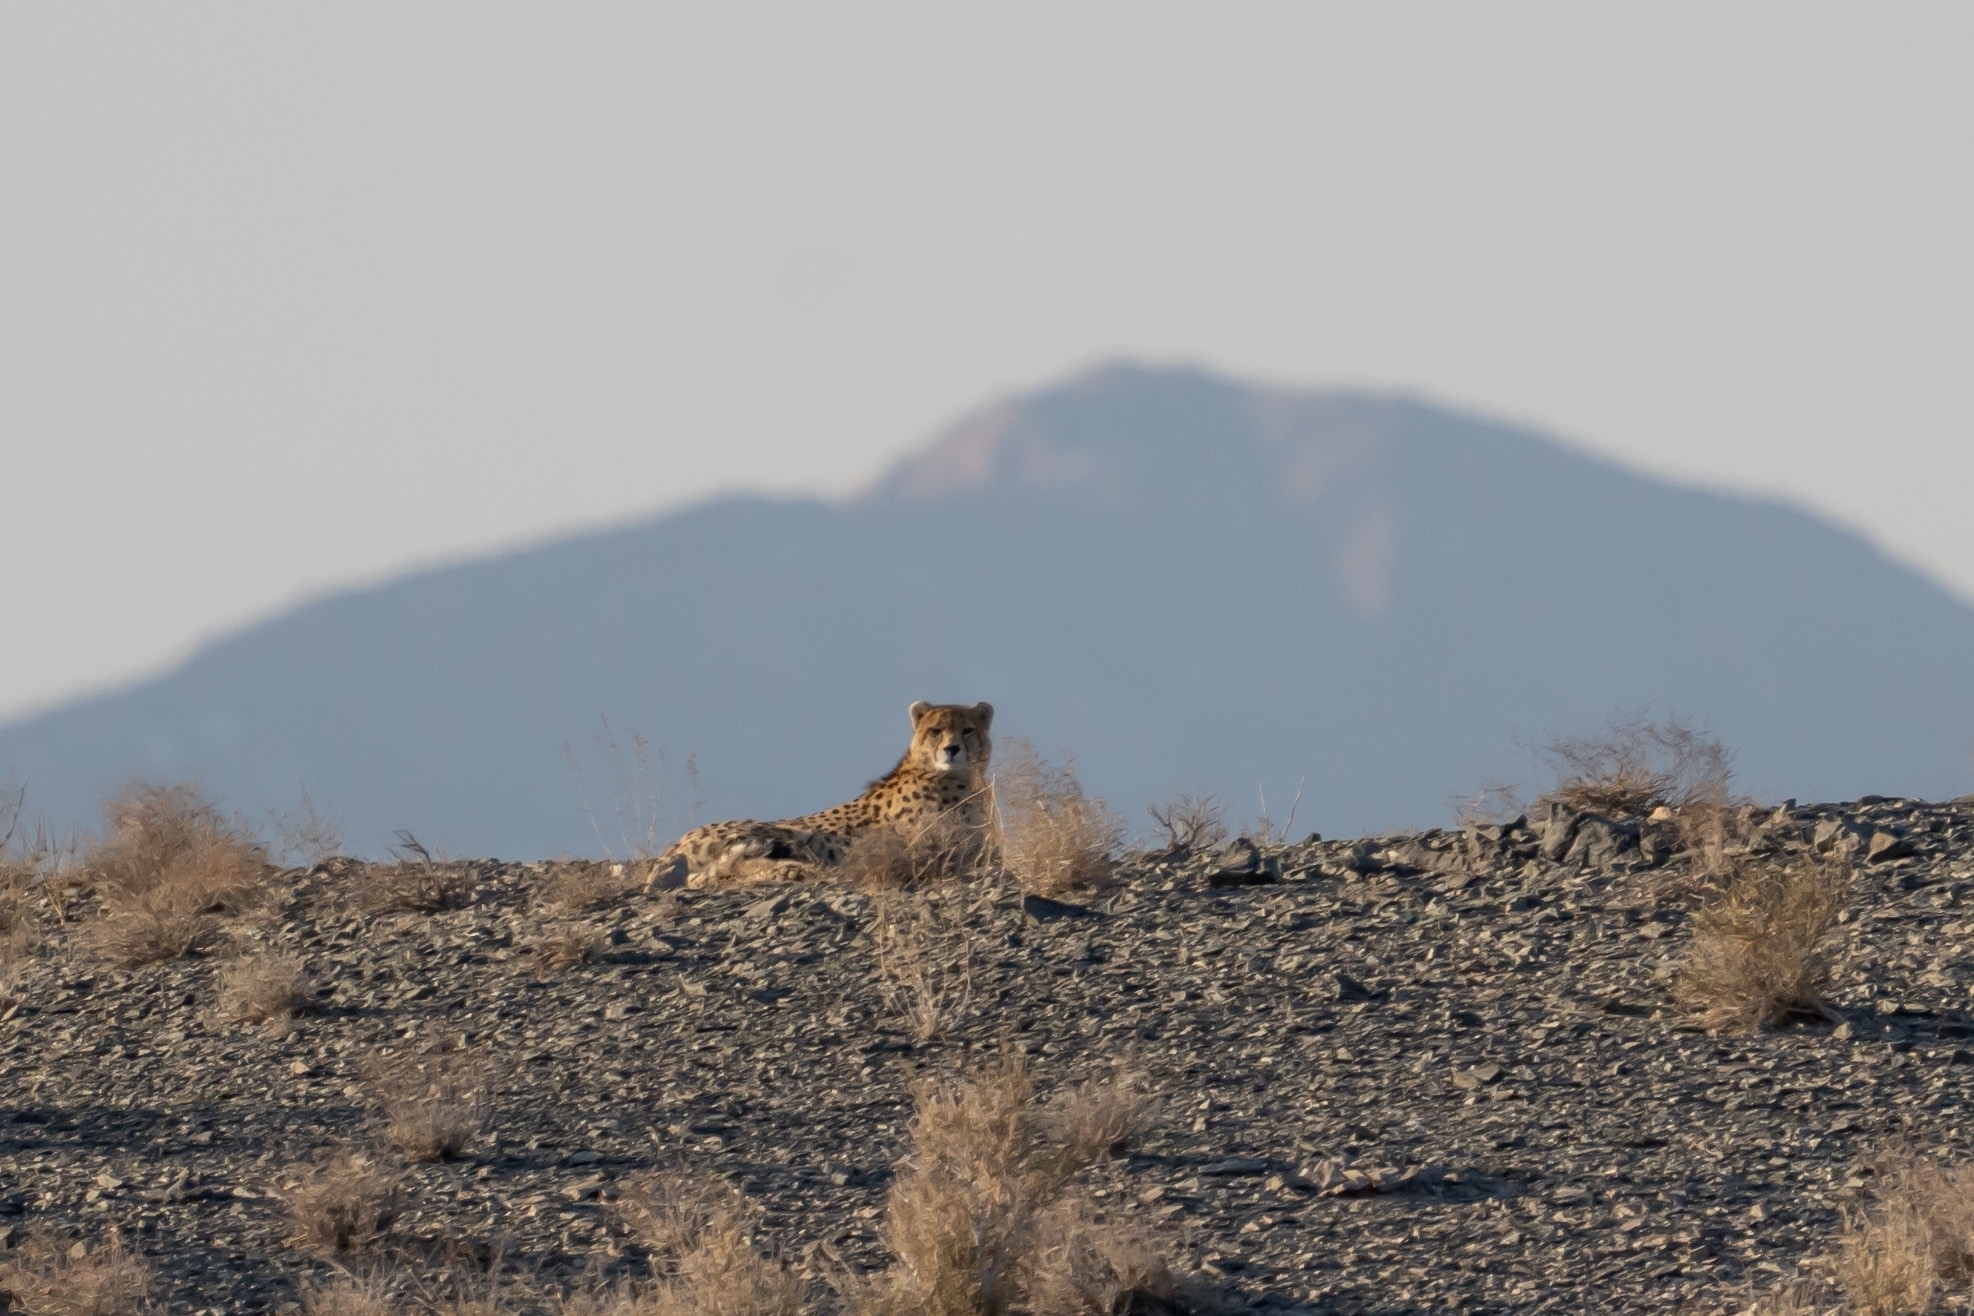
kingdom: Animalia
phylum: Chordata
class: Mammalia
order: Carnivora
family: Felidae
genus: Acinonyx
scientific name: Acinonyx jubatus
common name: Cheetah
